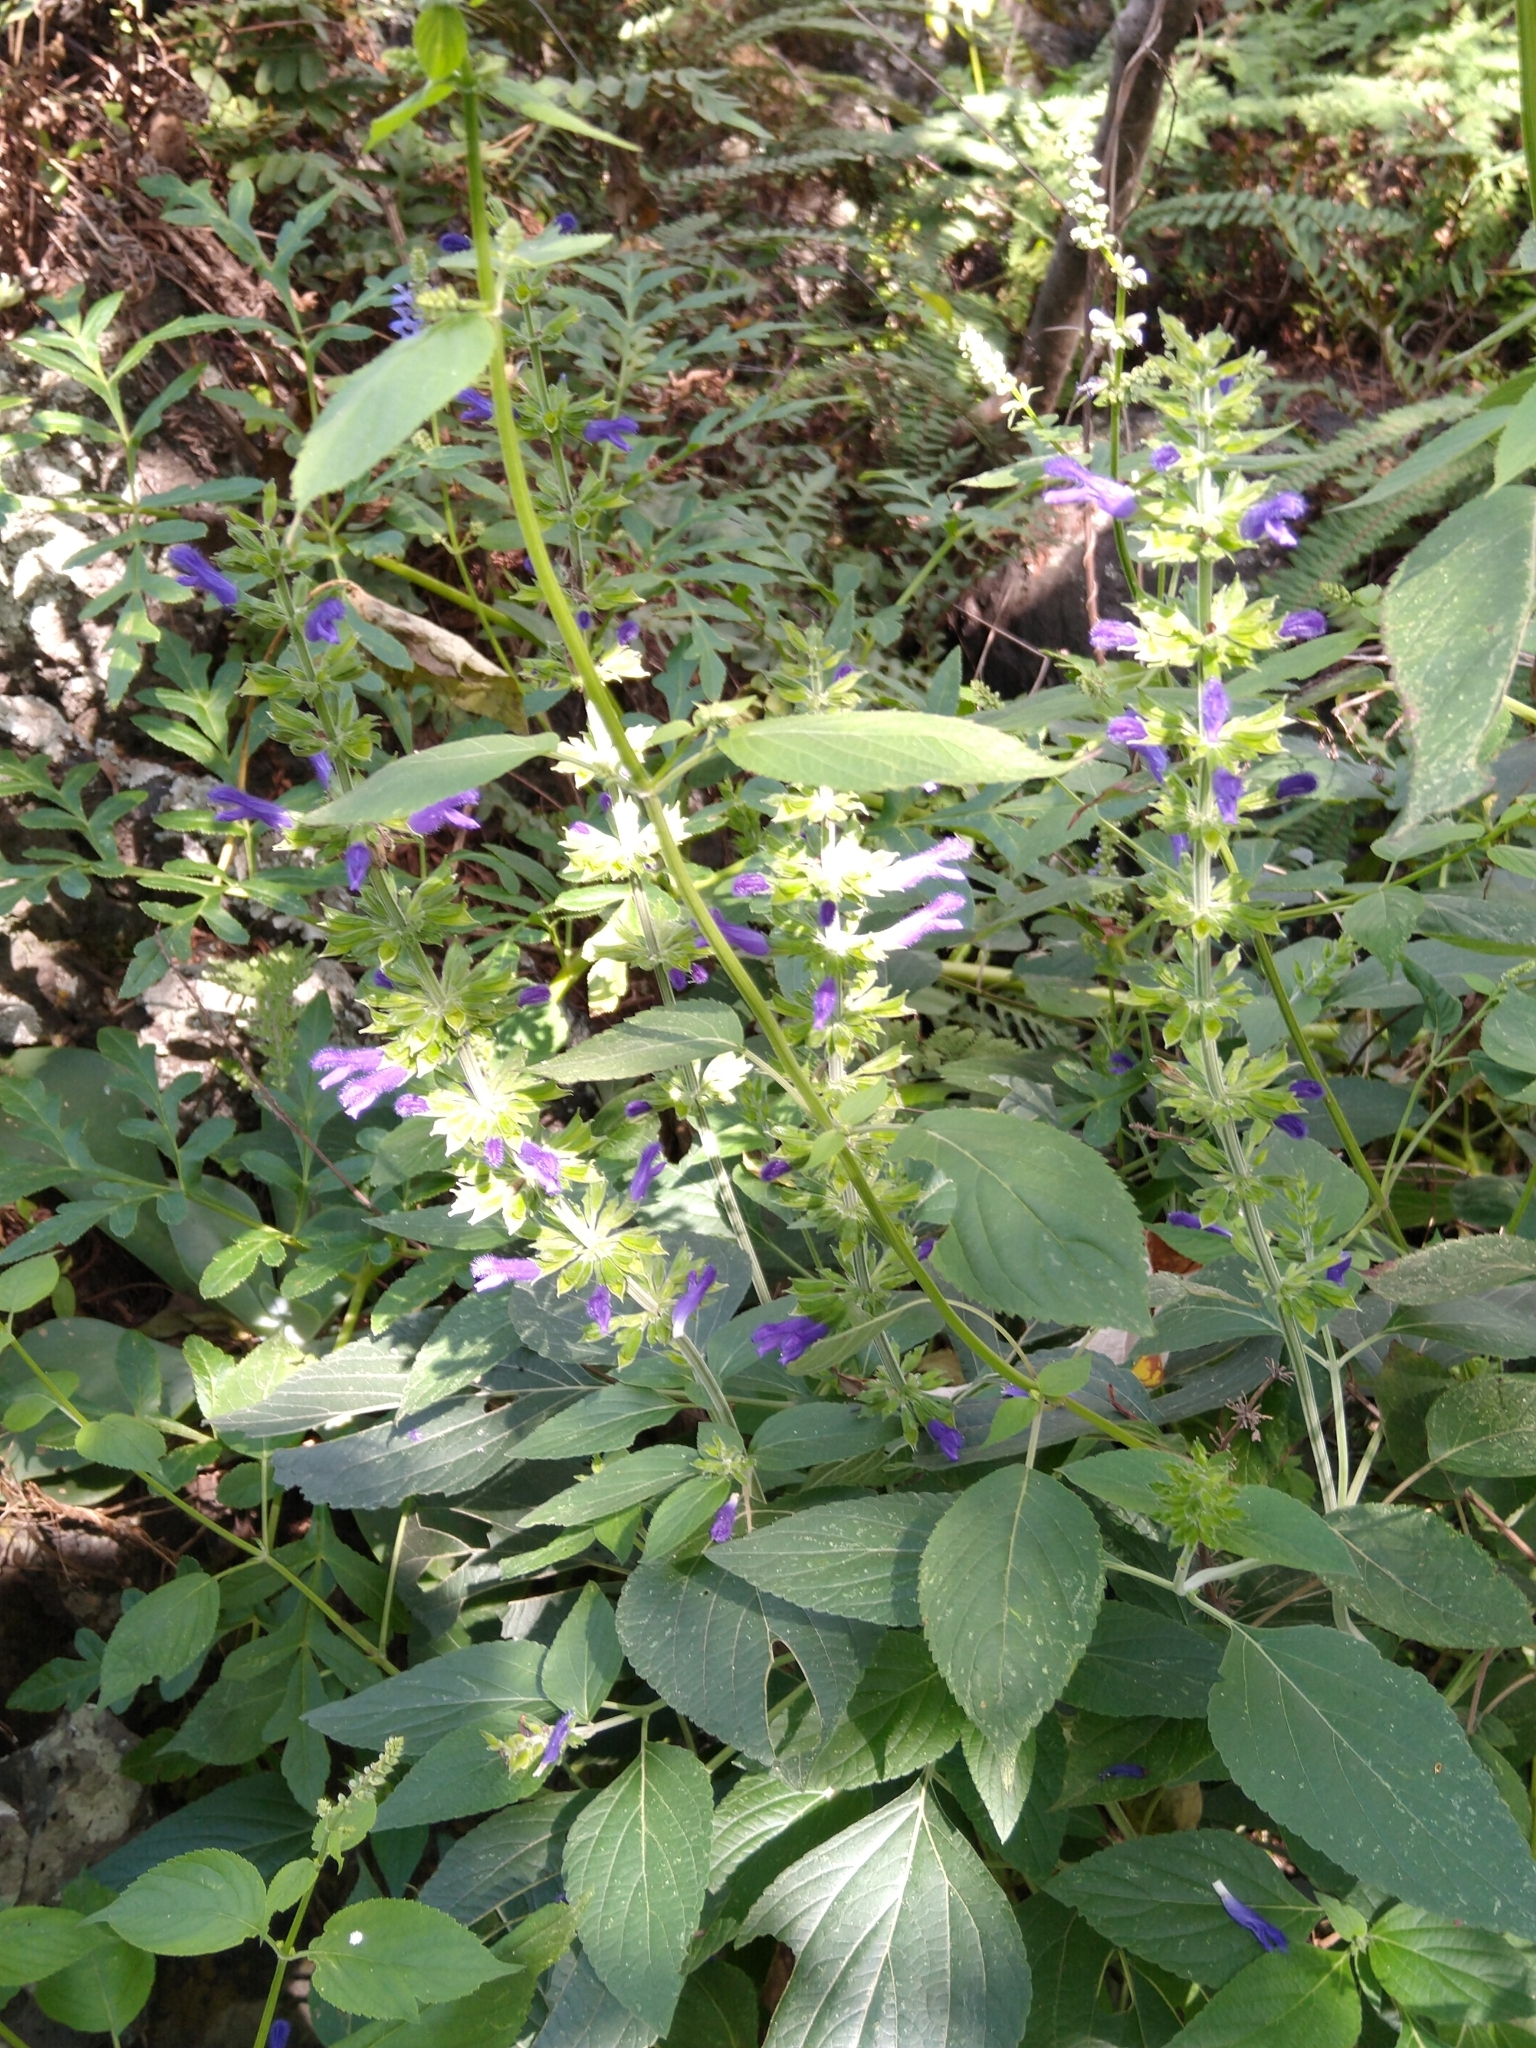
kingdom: Plantae
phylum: Tracheophyta
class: Magnoliopsida
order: Lamiales
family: Lamiaceae
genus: Salvia
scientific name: Salvia mexicana
